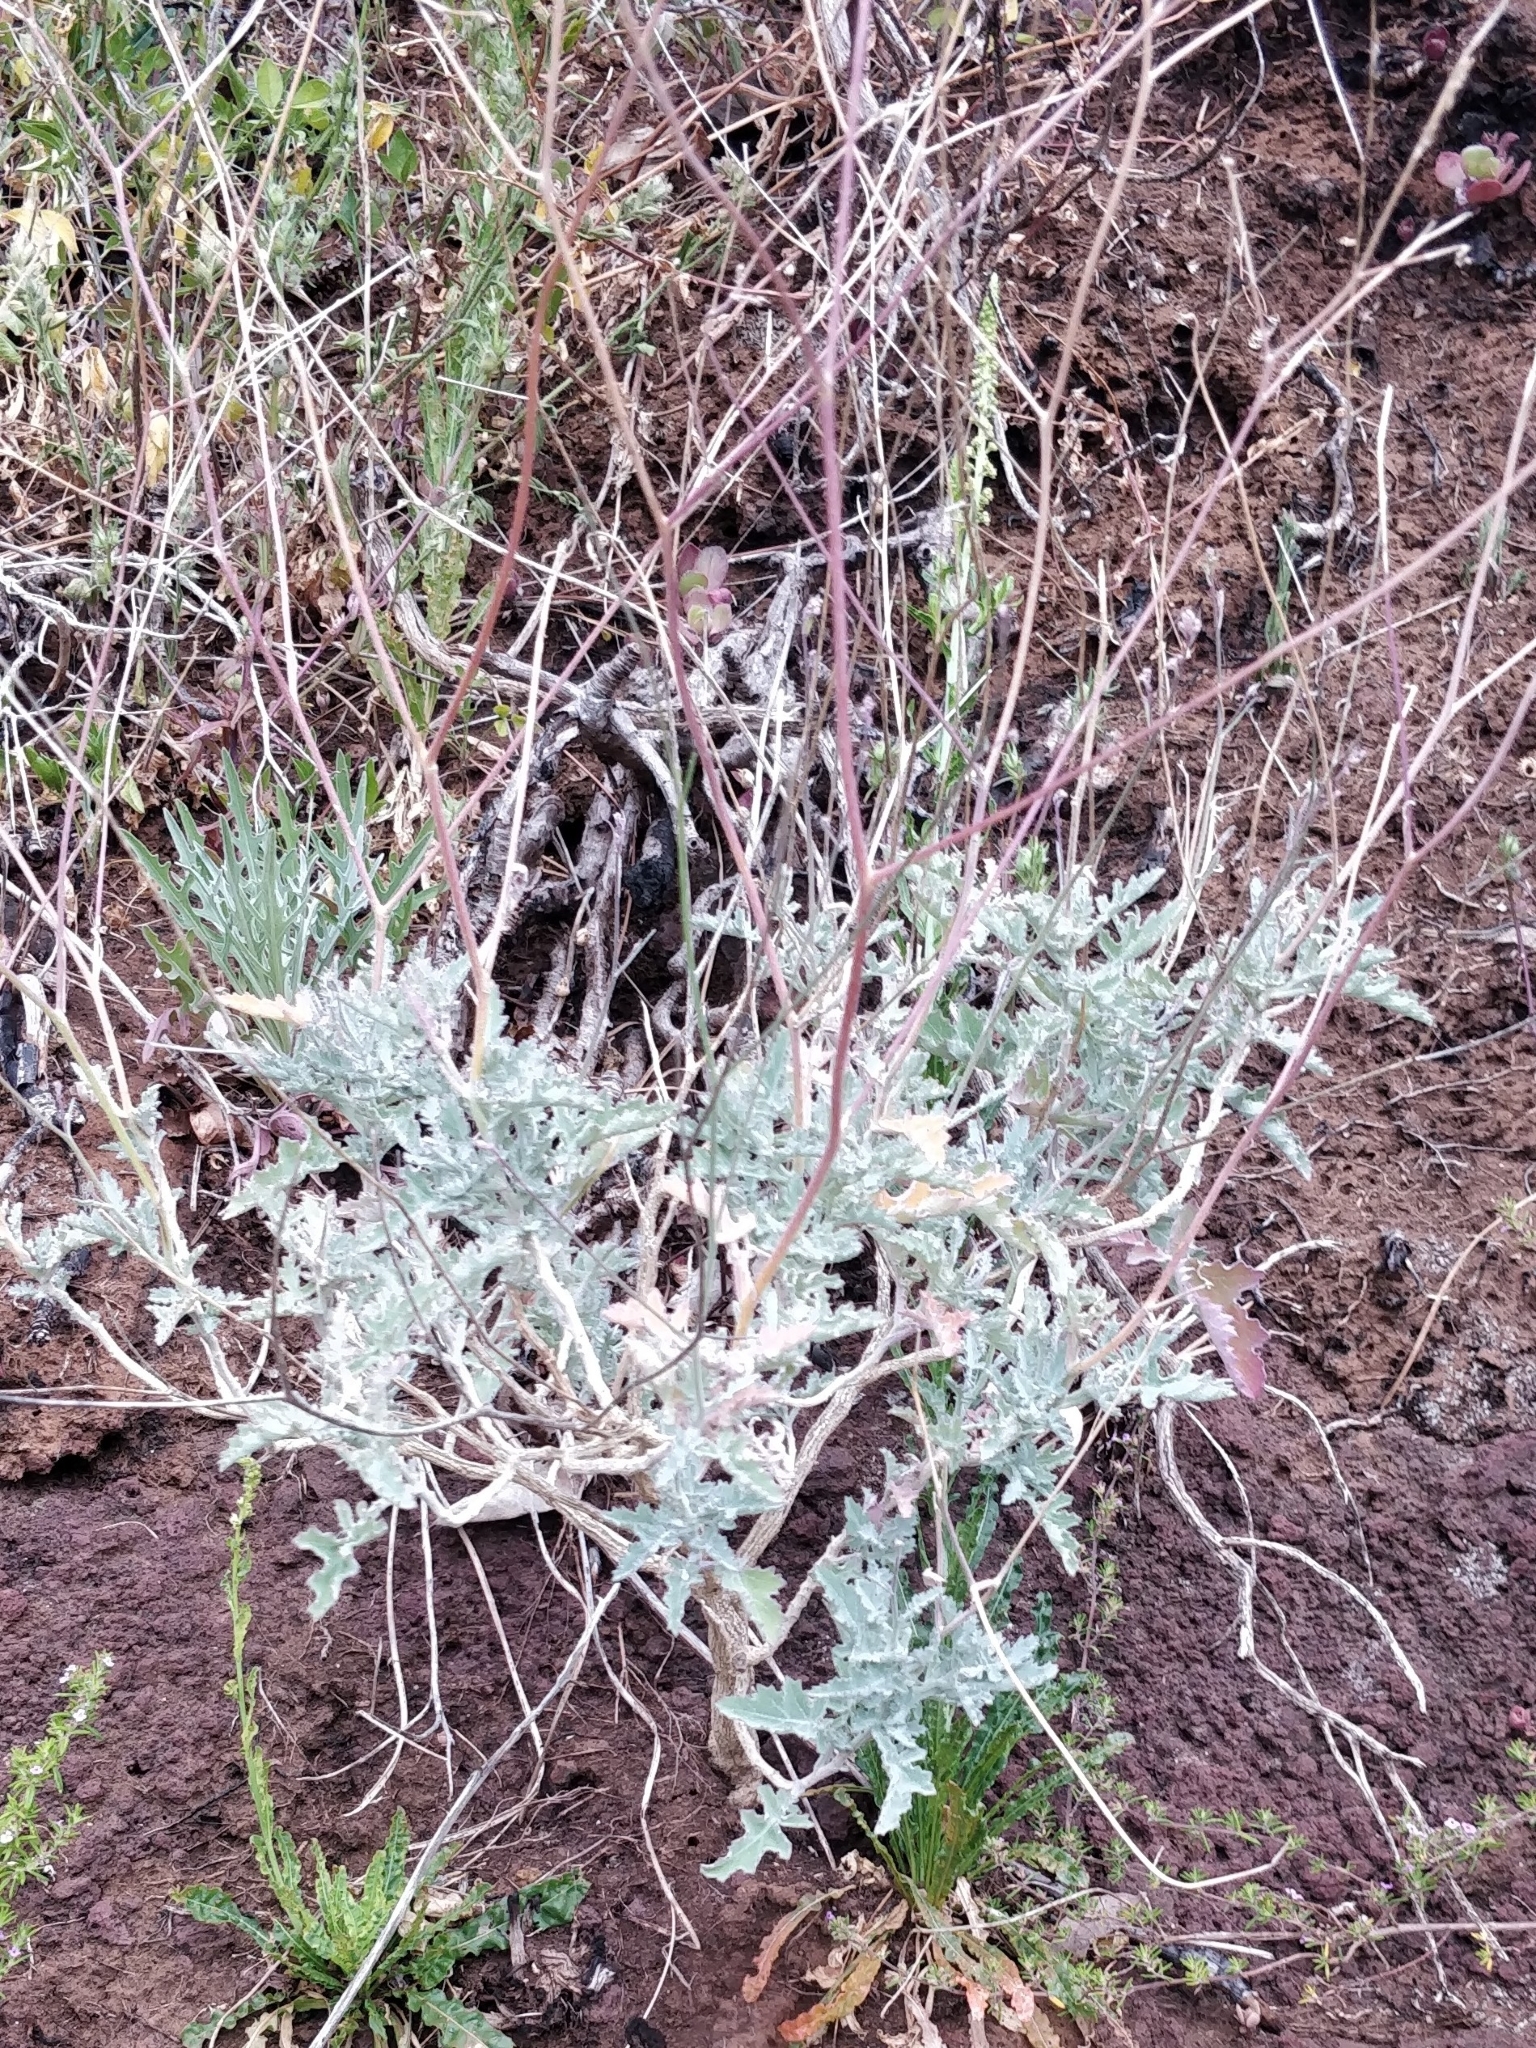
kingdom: Plantae
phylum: Tracheophyta
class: Magnoliopsida
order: Brassicales
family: Brassicaceae
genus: Crambe
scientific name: Crambe fruticosa
